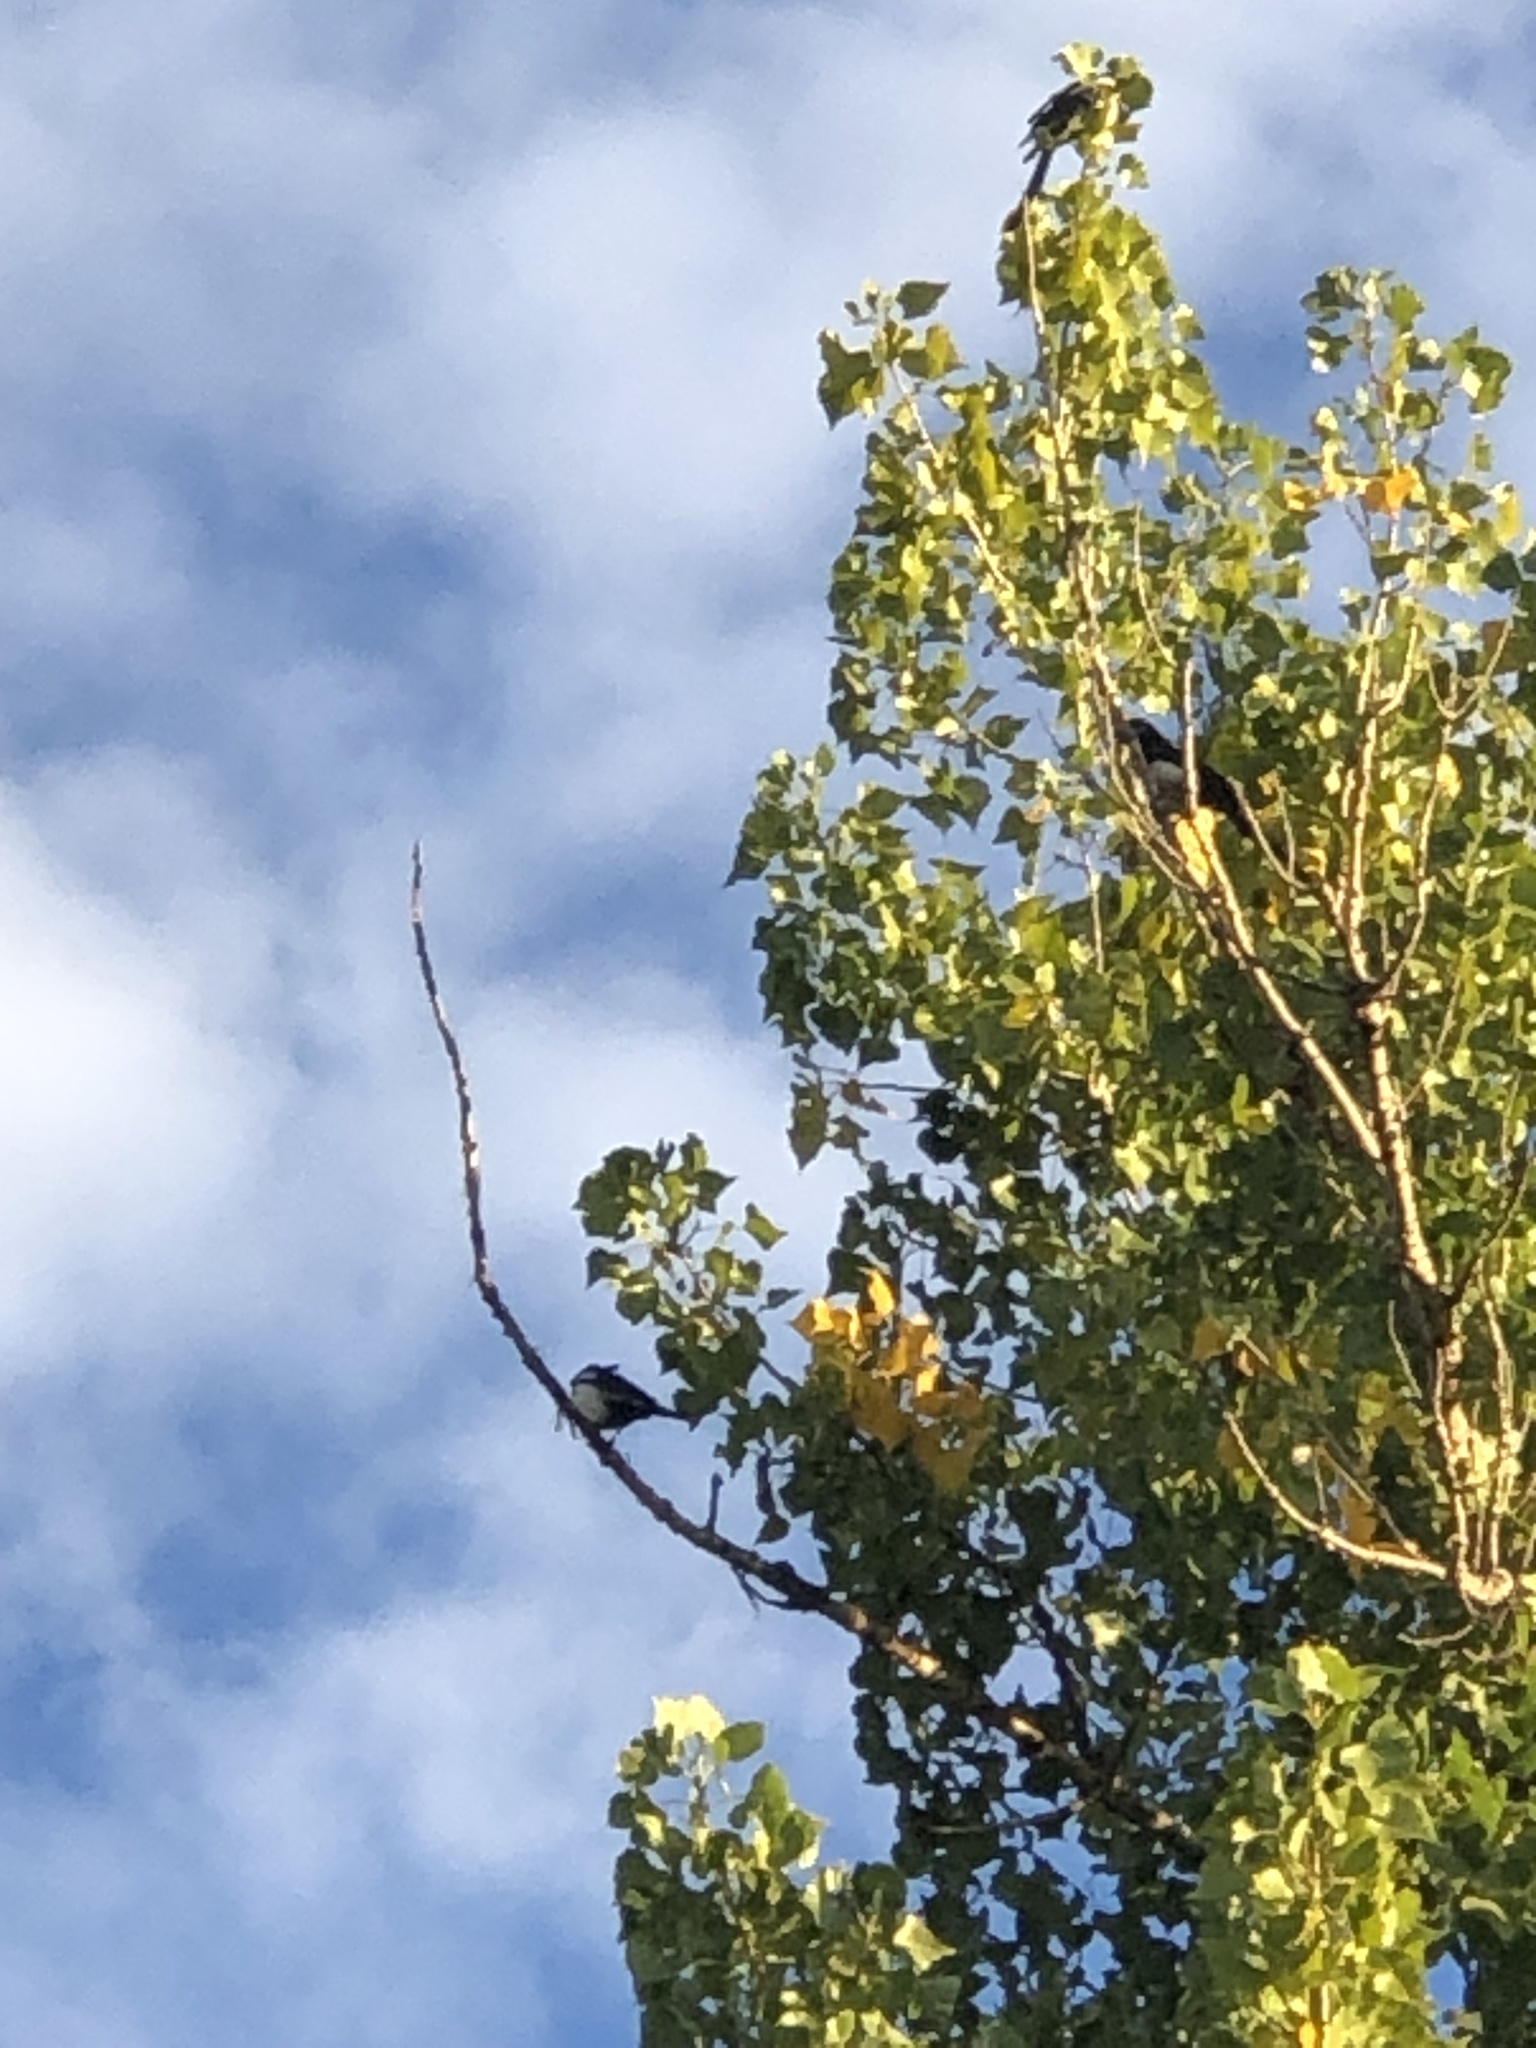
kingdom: Animalia
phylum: Chordata
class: Aves
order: Passeriformes
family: Corvidae
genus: Pica
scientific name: Pica hudsonia
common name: Black-billed magpie
